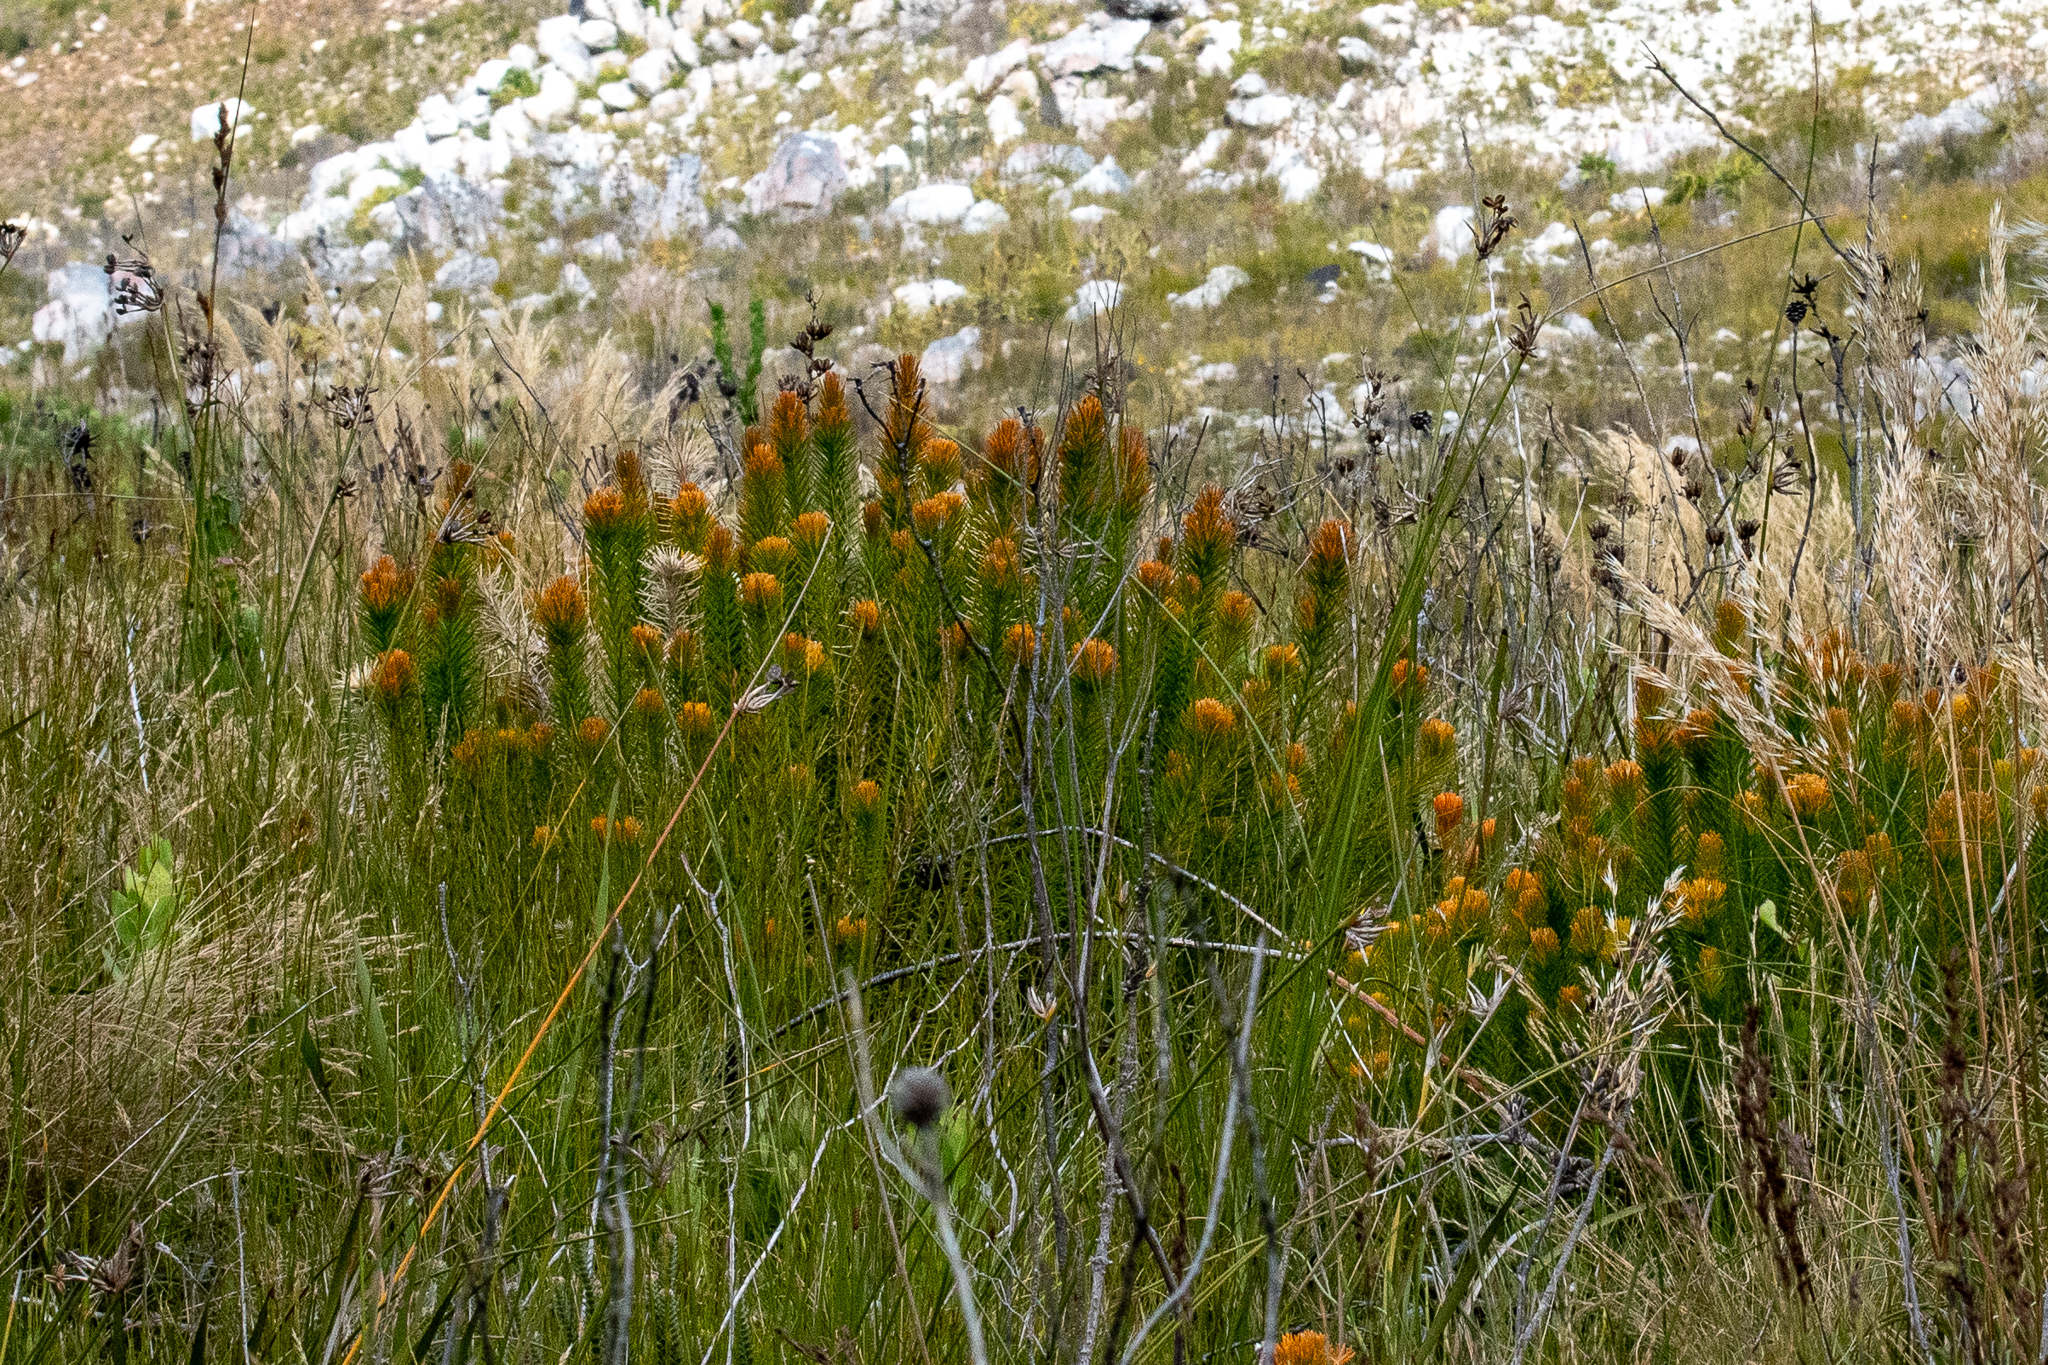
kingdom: Plantae
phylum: Tracheophyta
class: Magnoliopsida
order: Lamiales
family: Stilbaceae
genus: Retzia
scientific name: Retzia capensis
